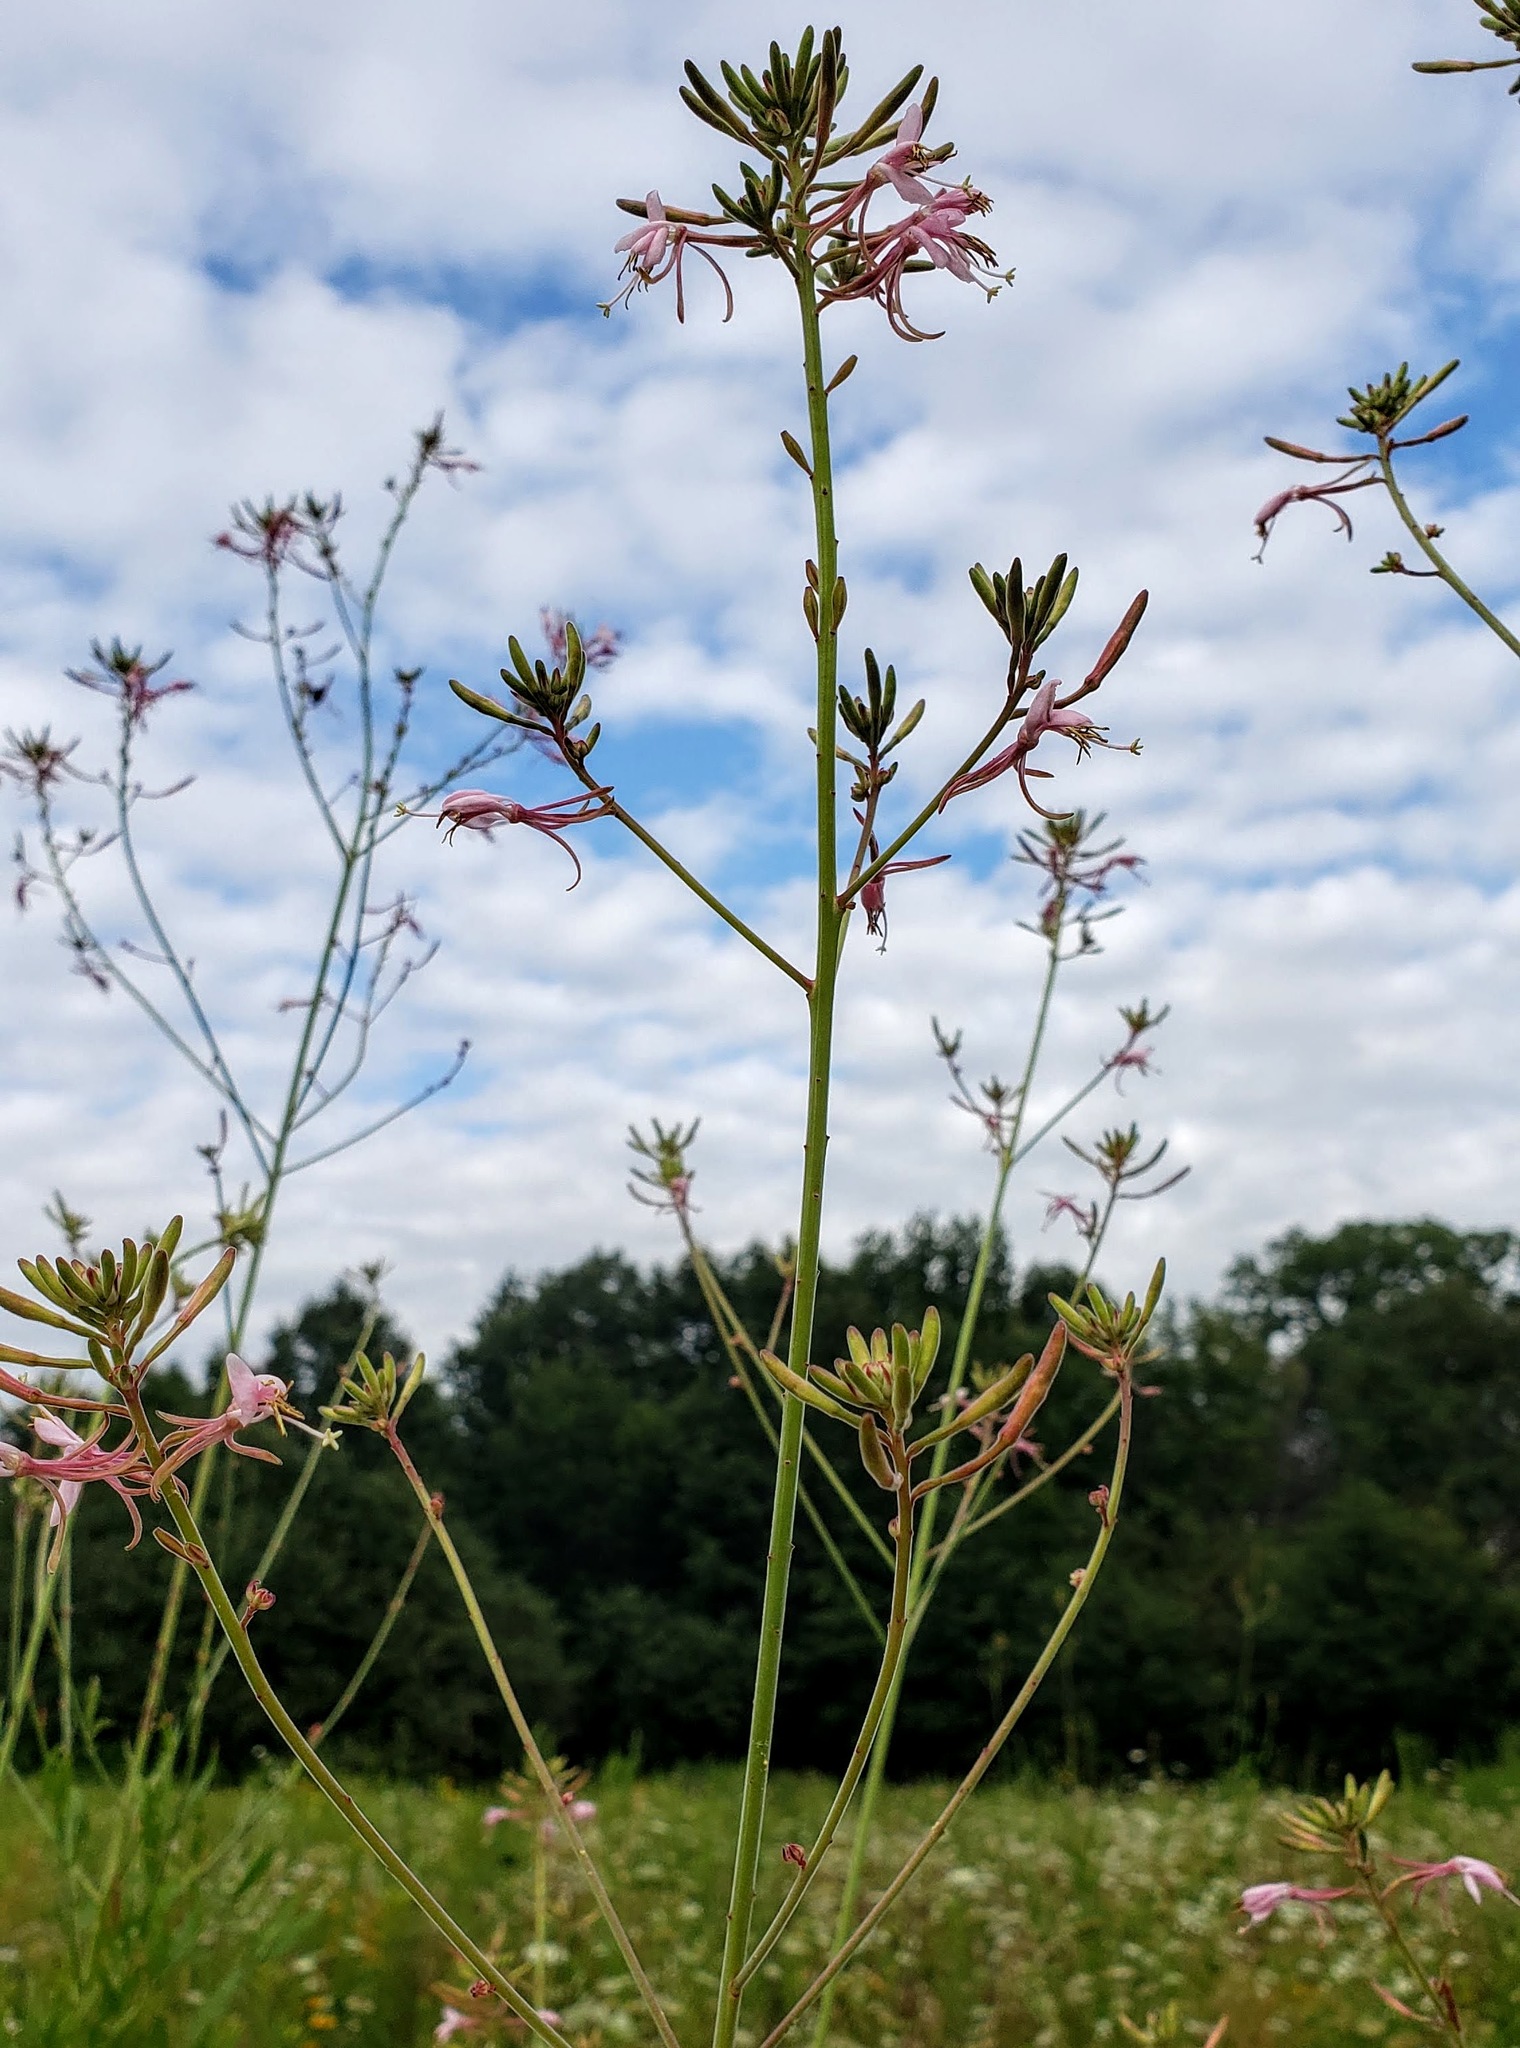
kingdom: Plantae
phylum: Tracheophyta
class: Magnoliopsida
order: Myrtales
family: Onagraceae
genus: Oenothera
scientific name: Oenothera gaura
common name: Biennial beeblossom
